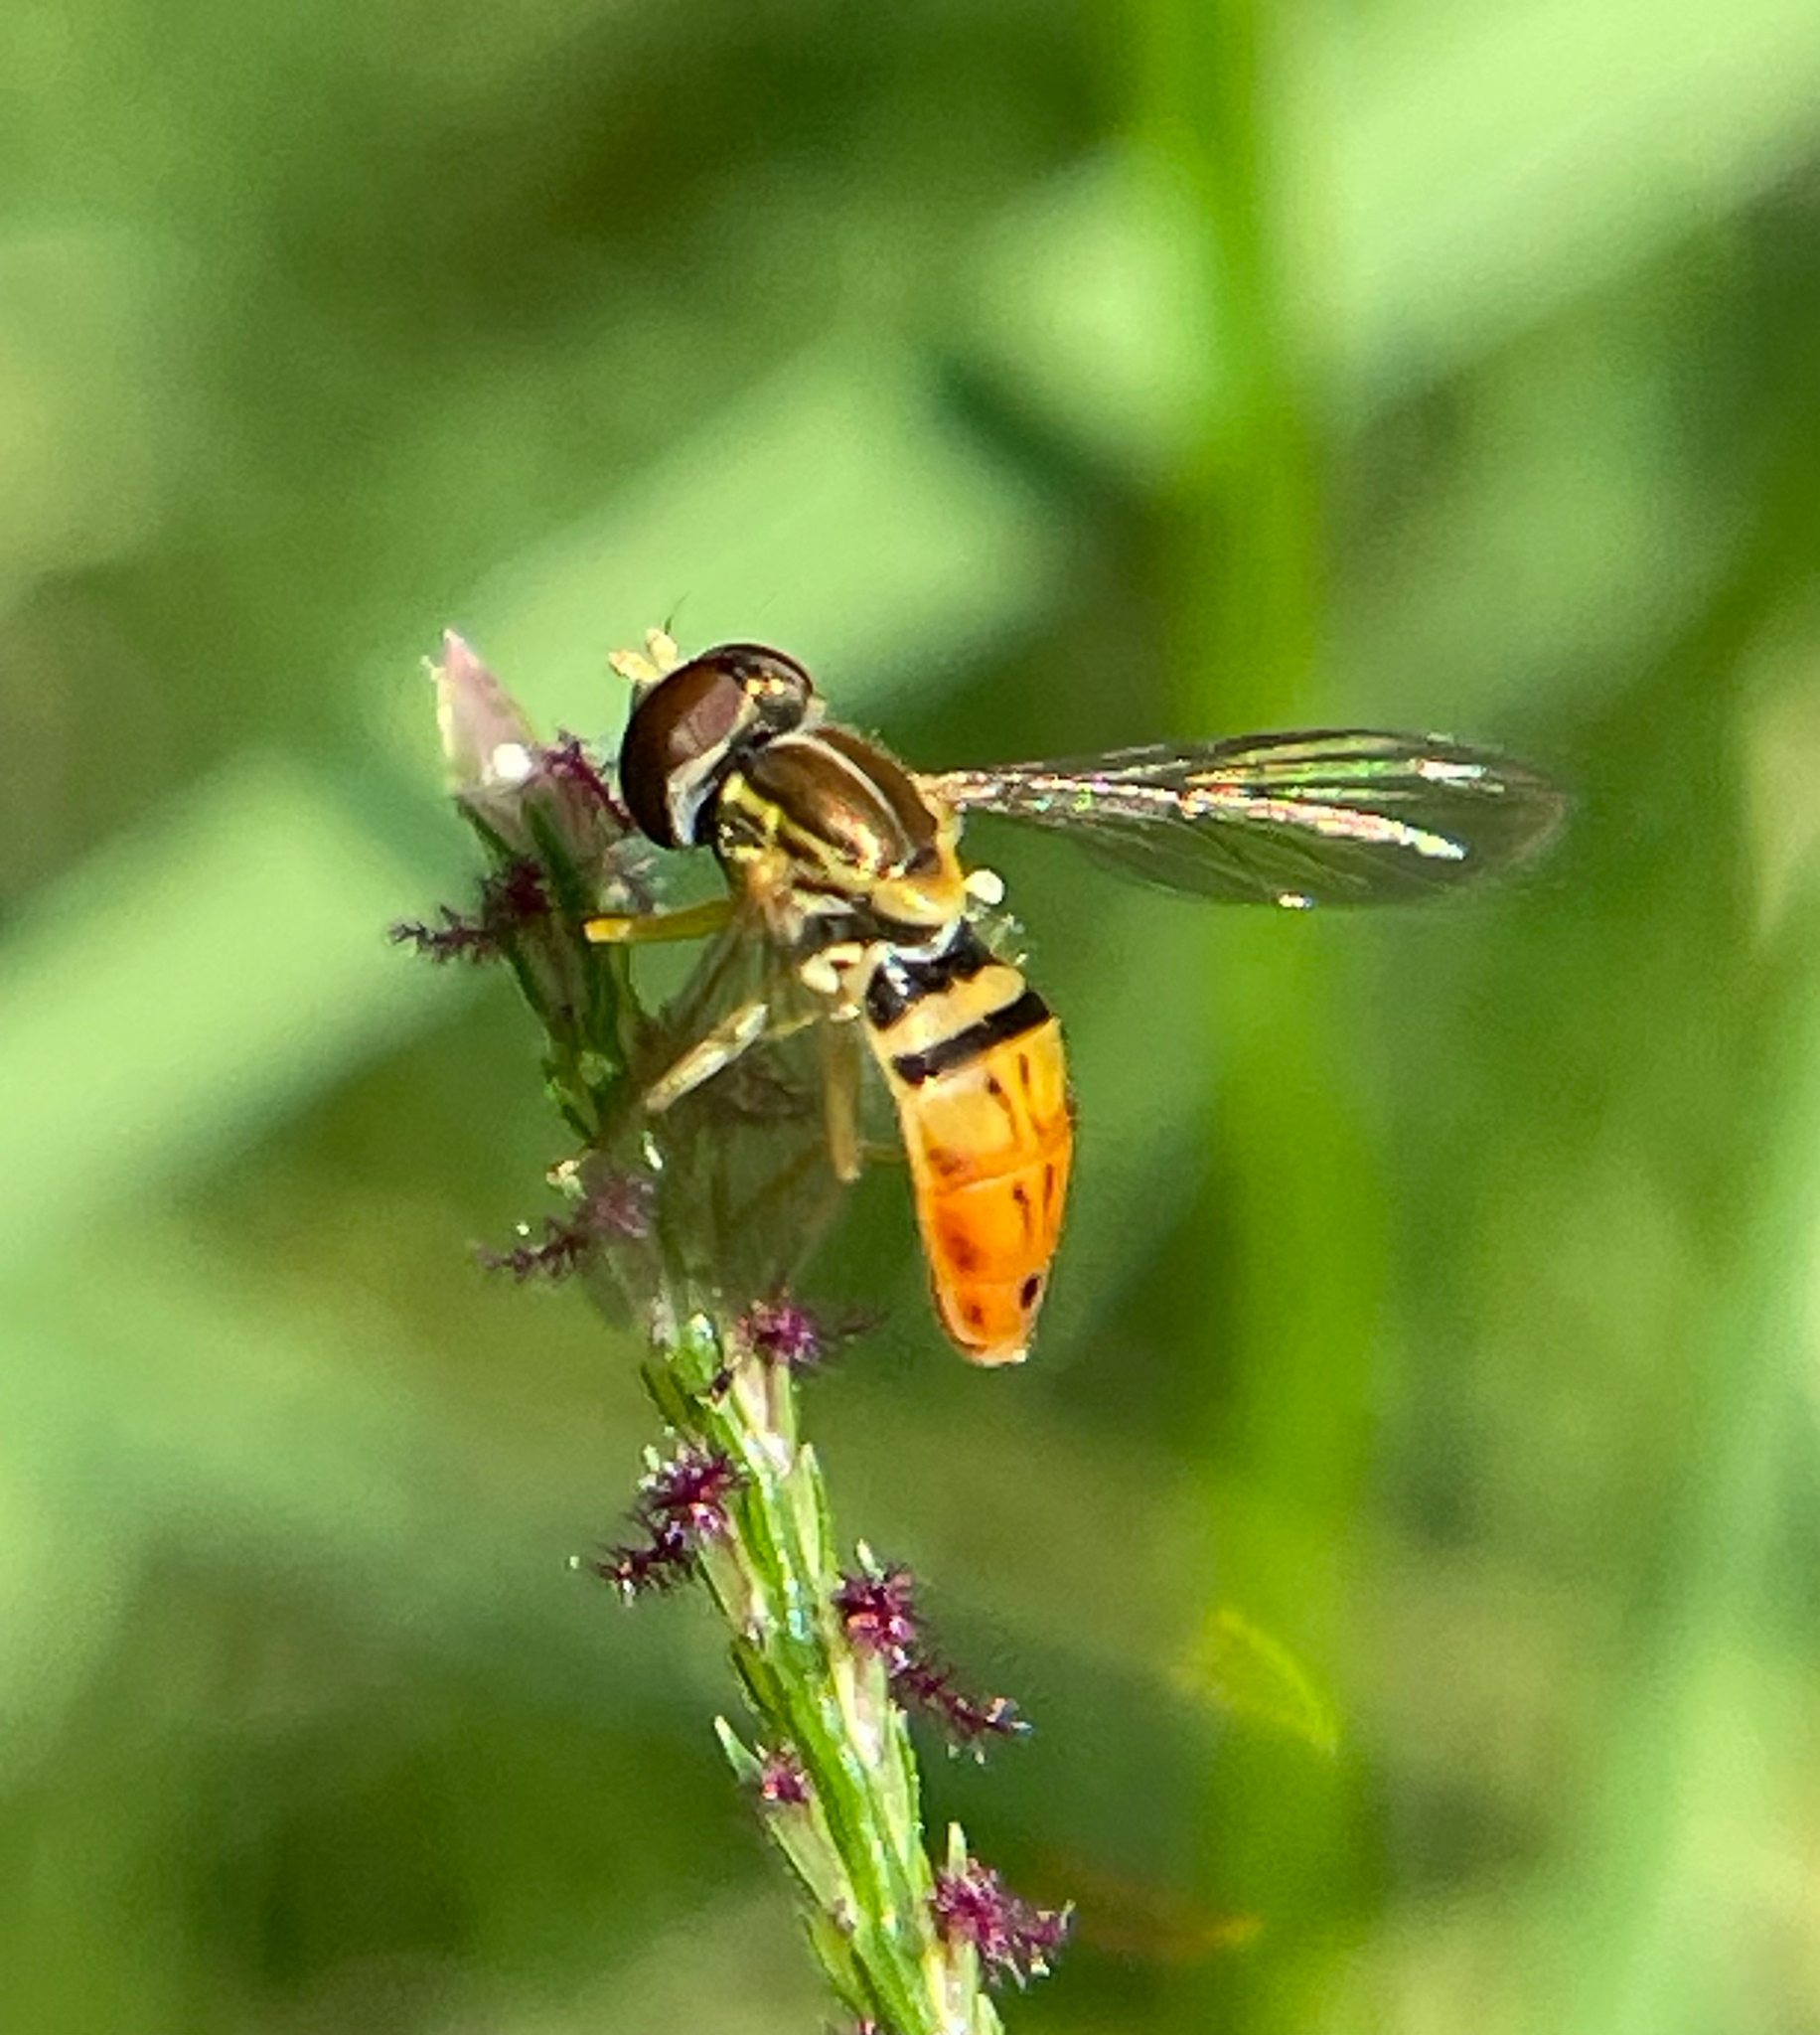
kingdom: Animalia
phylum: Arthropoda
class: Insecta
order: Diptera
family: Syrphidae
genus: Toxomerus
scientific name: Toxomerus marginatus
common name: Syrphid fly
